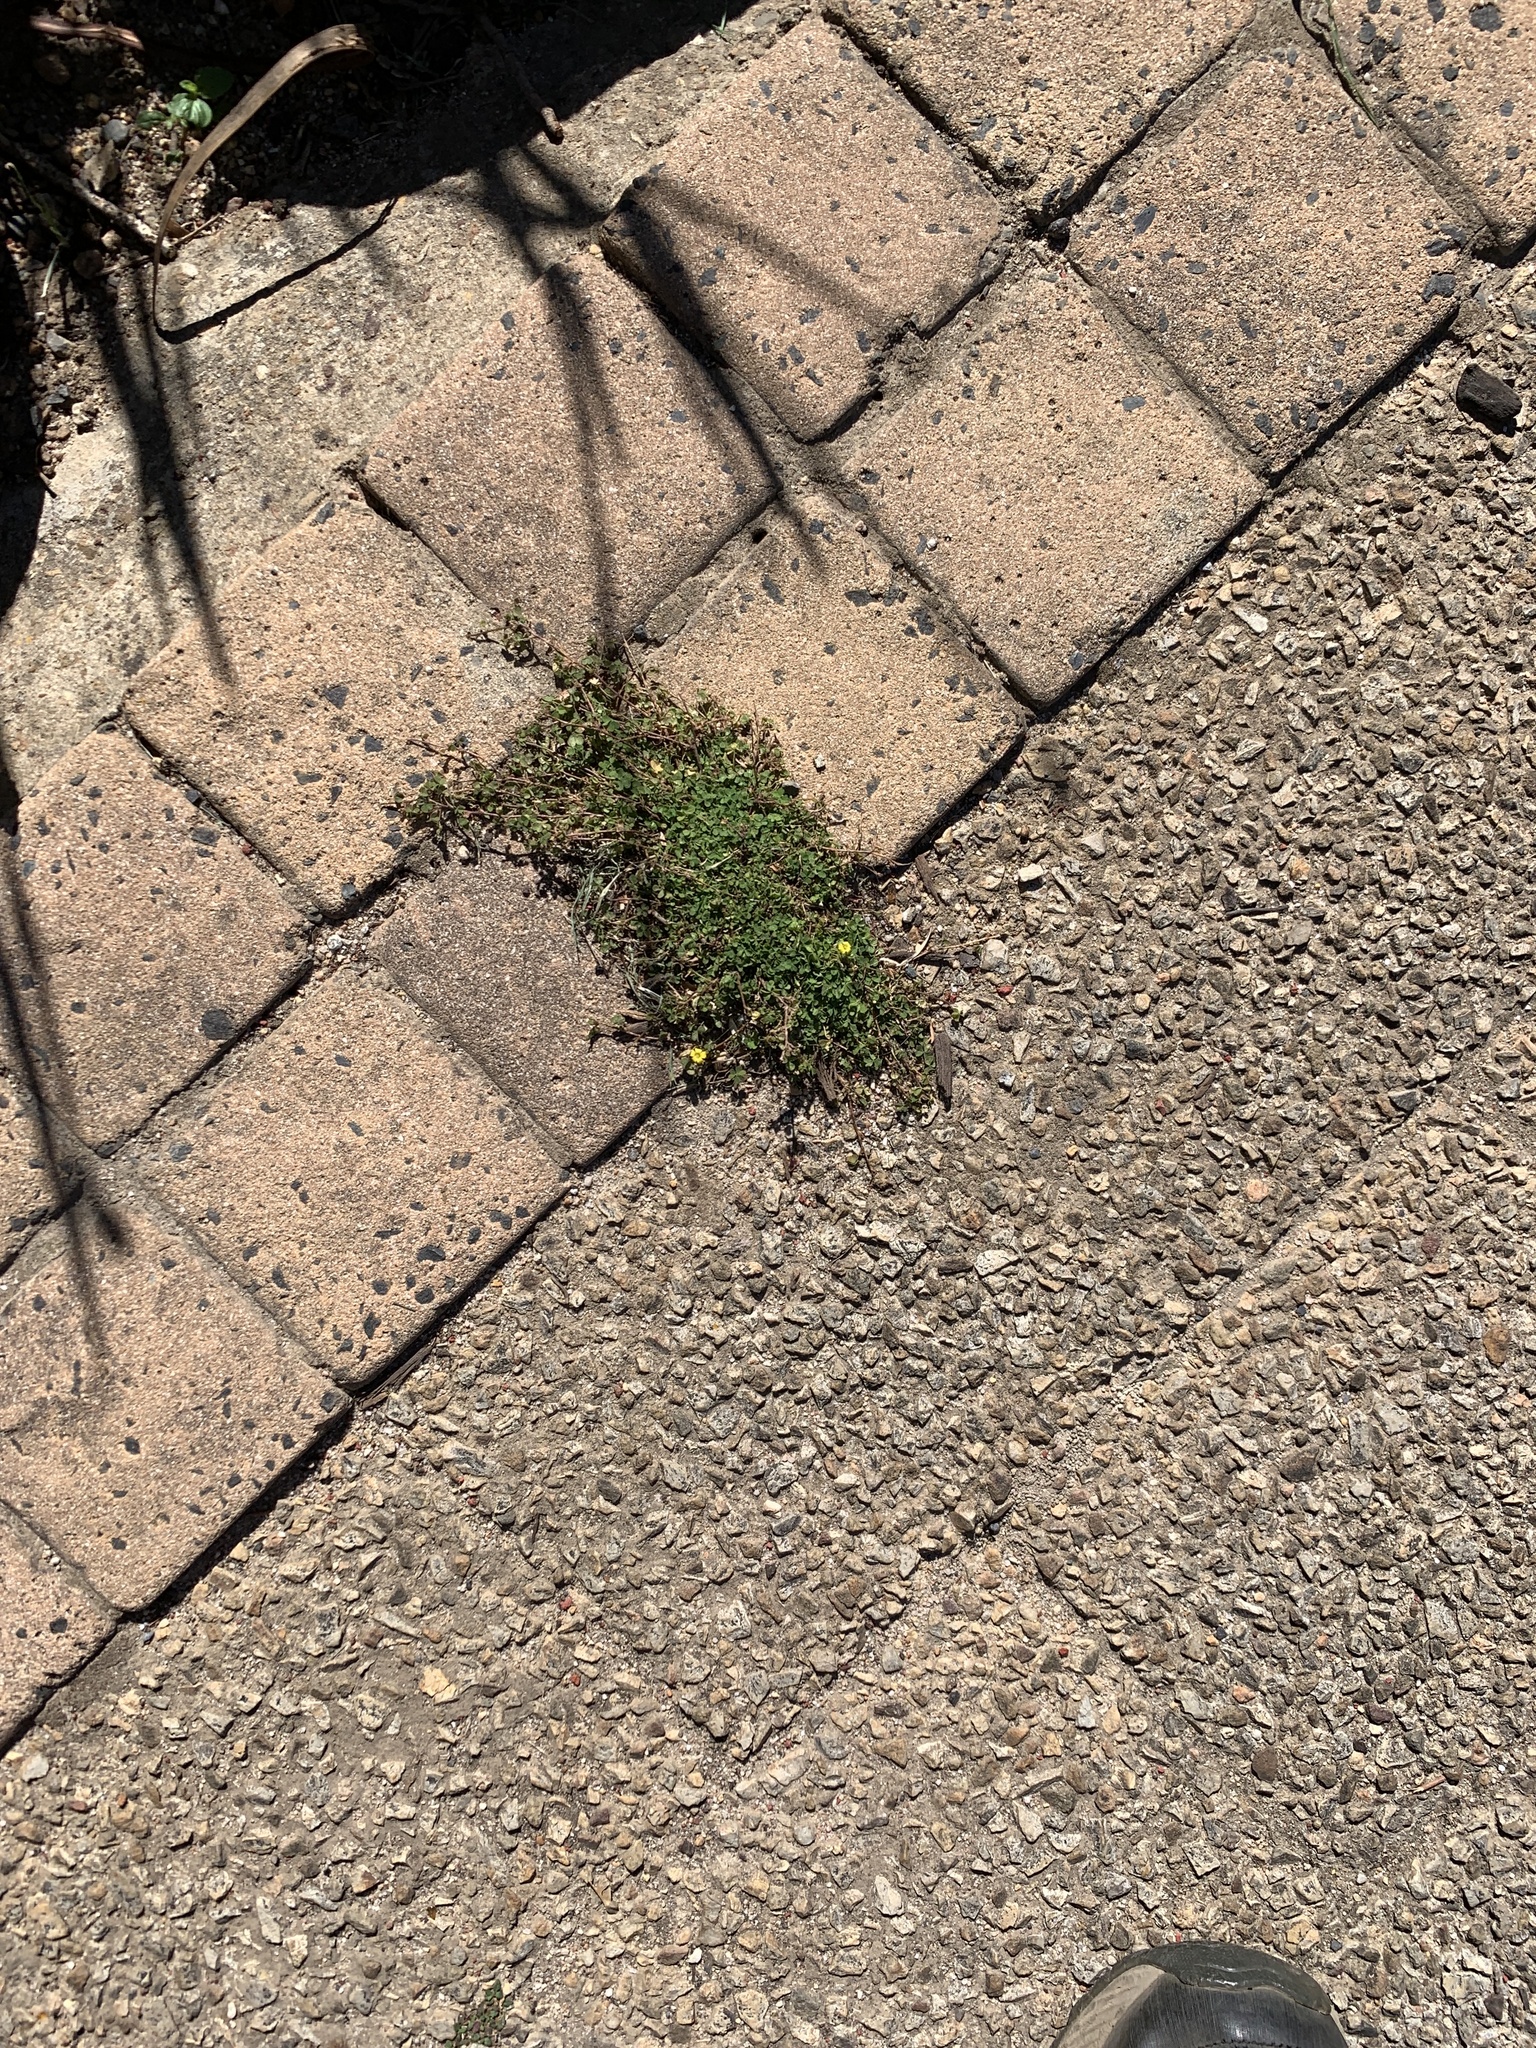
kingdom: Plantae
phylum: Tracheophyta
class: Magnoliopsida
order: Oxalidales
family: Oxalidaceae
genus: Oxalis
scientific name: Oxalis corniculata
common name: Procumbent yellow-sorrel
